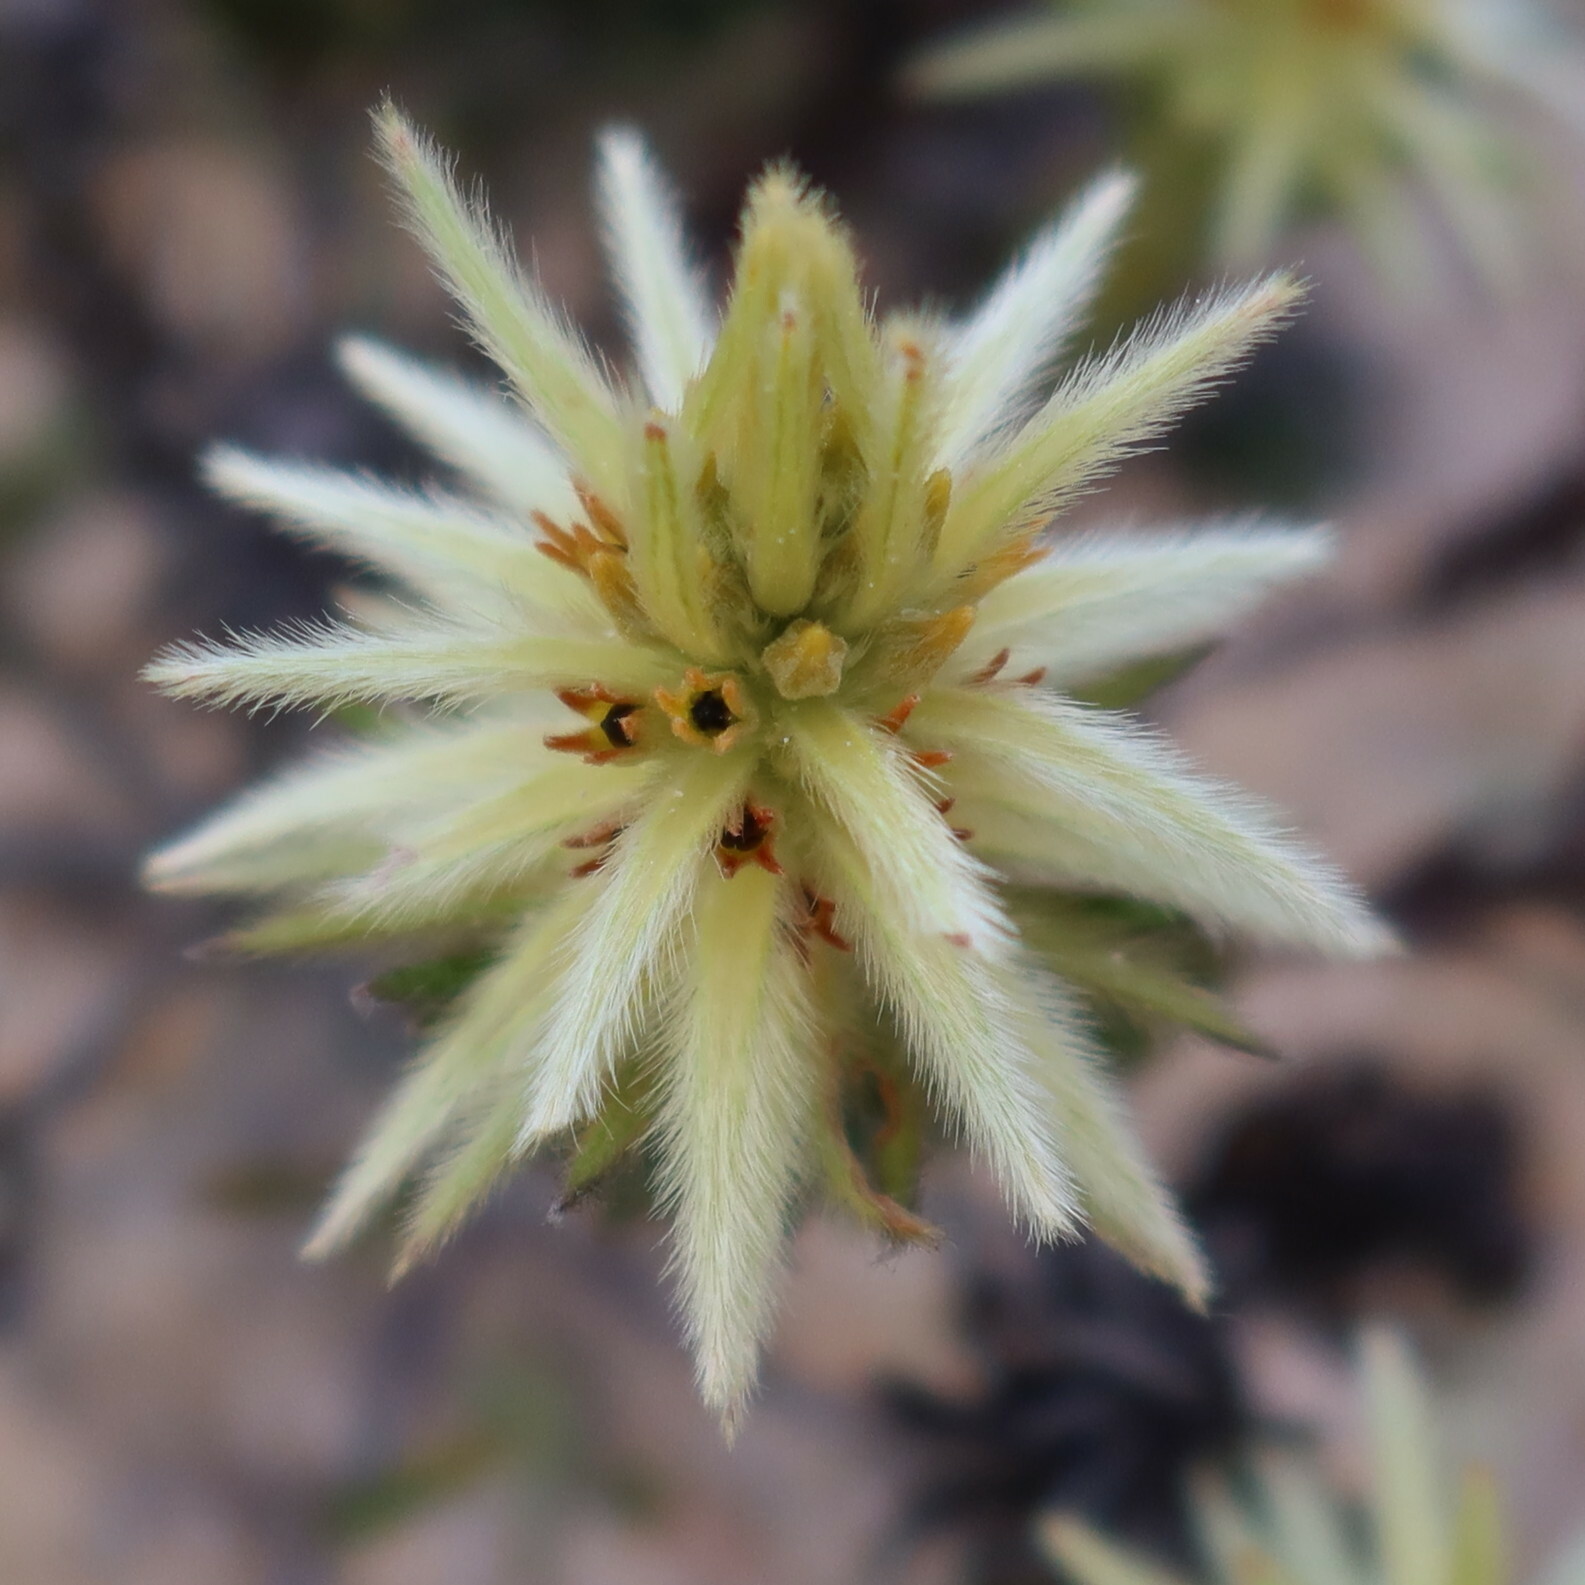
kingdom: Plantae
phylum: Tracheophyta
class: Magnoliopsida
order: Rosales
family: Rhamnaceae
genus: Phylica
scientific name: Phylica plumosa
